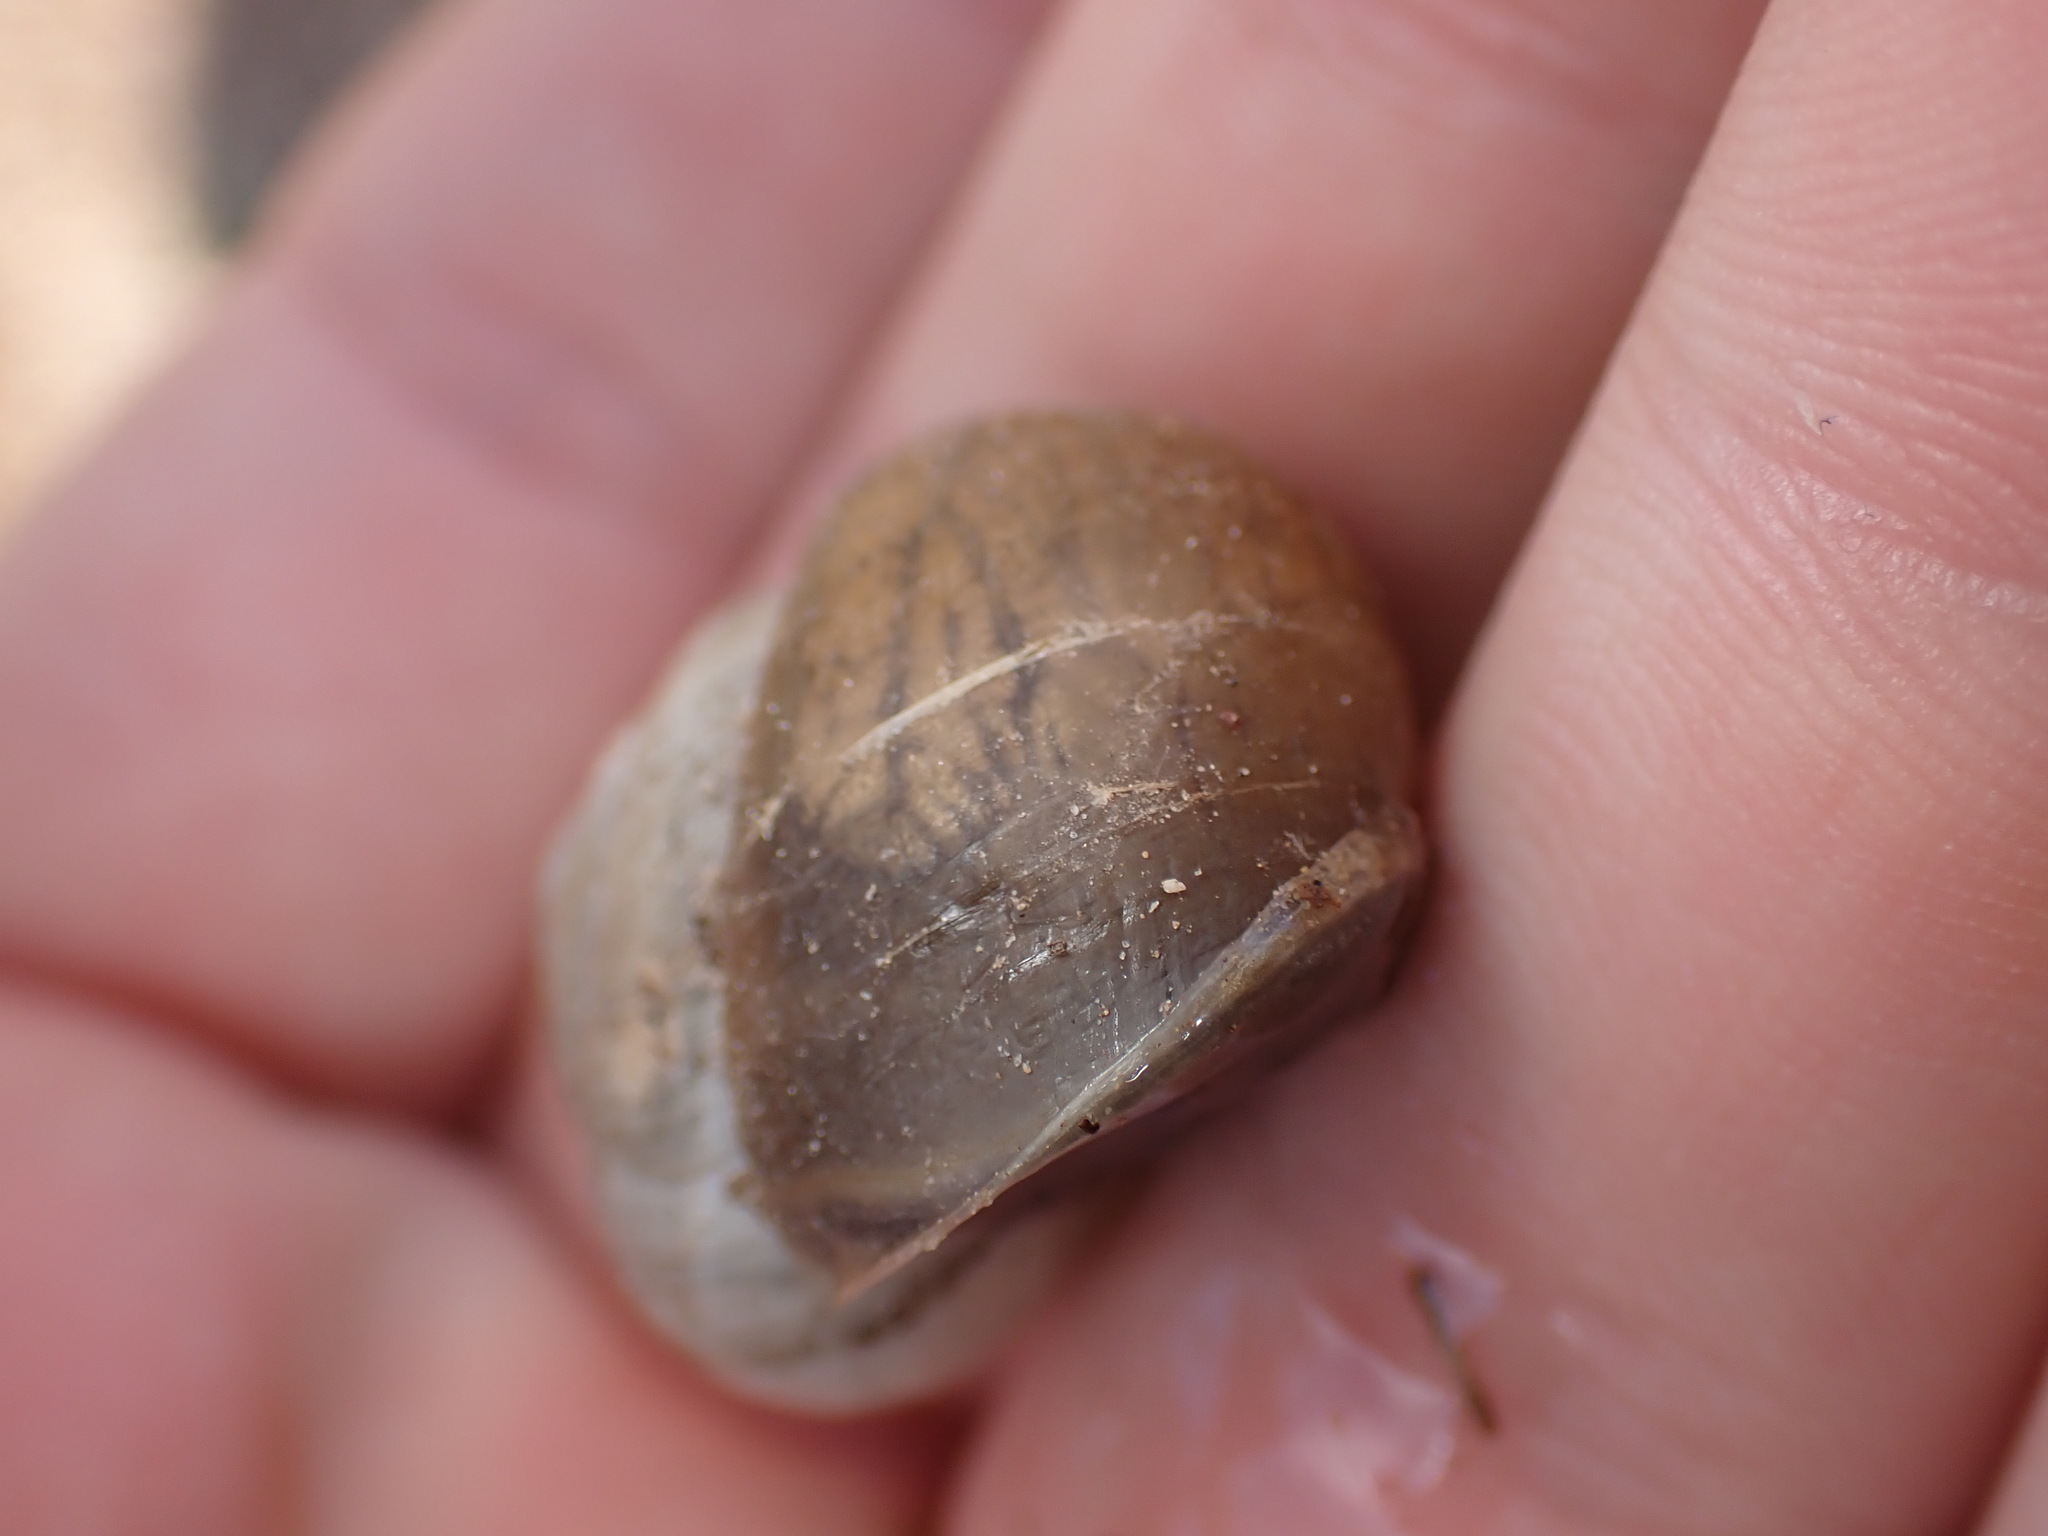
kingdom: Animalia
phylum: Mollusca
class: Gastropoda
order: Stylommatophora
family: Helicidae
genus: Eobania
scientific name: Eobania vermiculata
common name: Chocolateband snail
